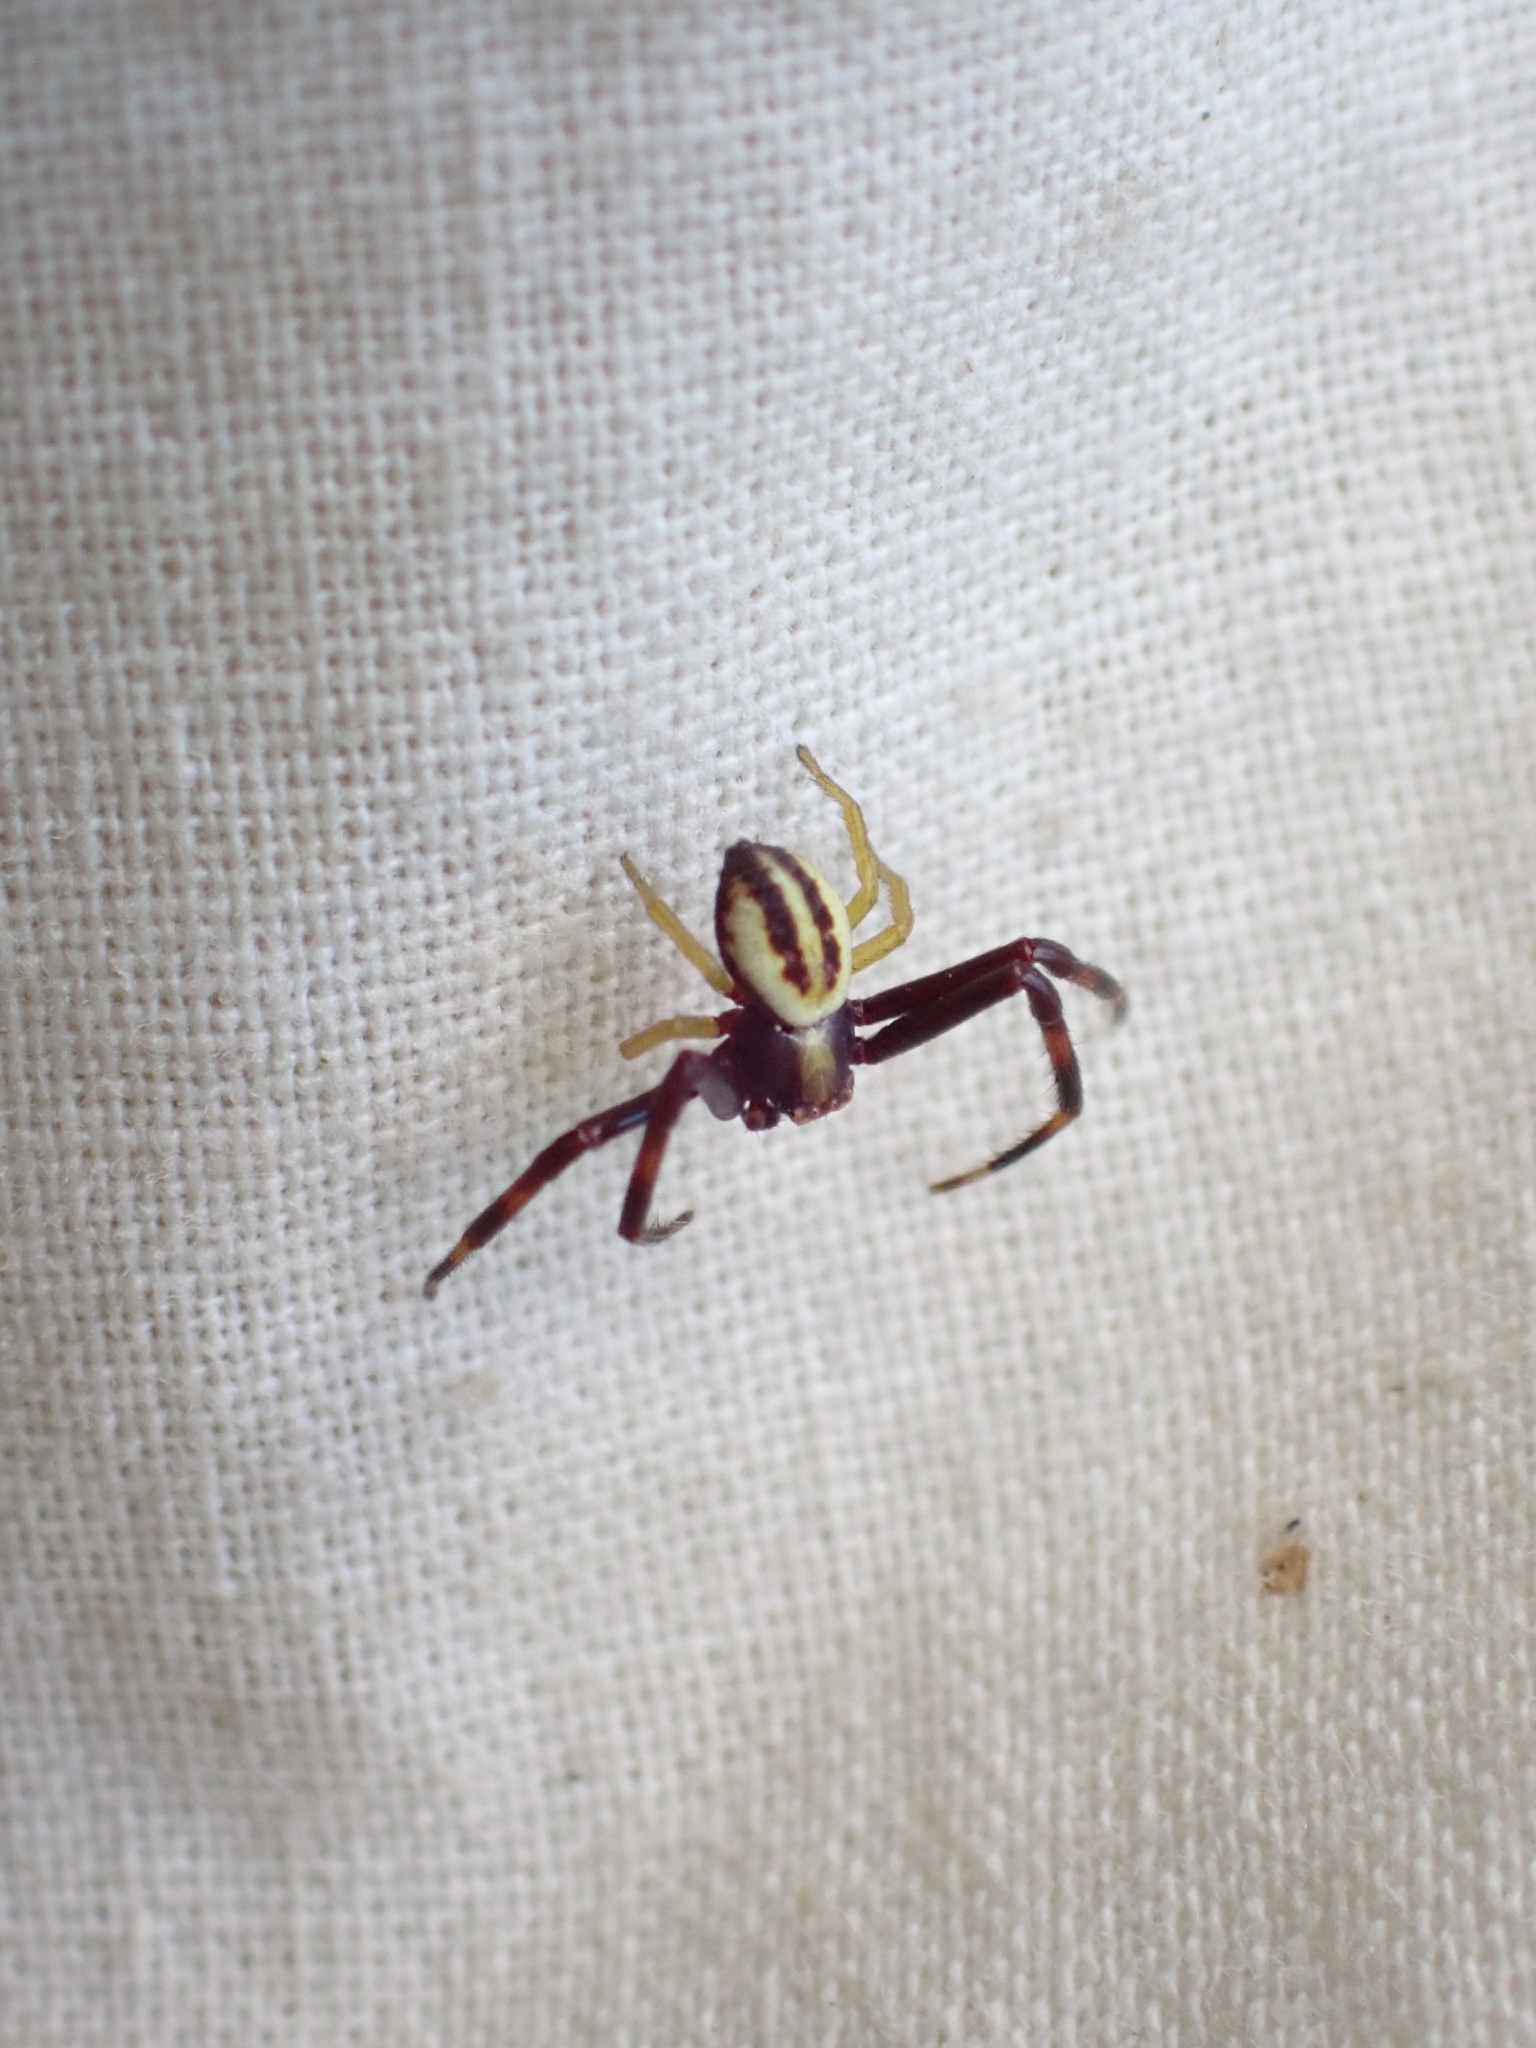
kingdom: Animalia
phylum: Arthropoda
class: Arachnida
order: Araneae
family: Thomisidae
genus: Misumena
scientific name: Misumena vatia
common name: Goldenrod crab spider
